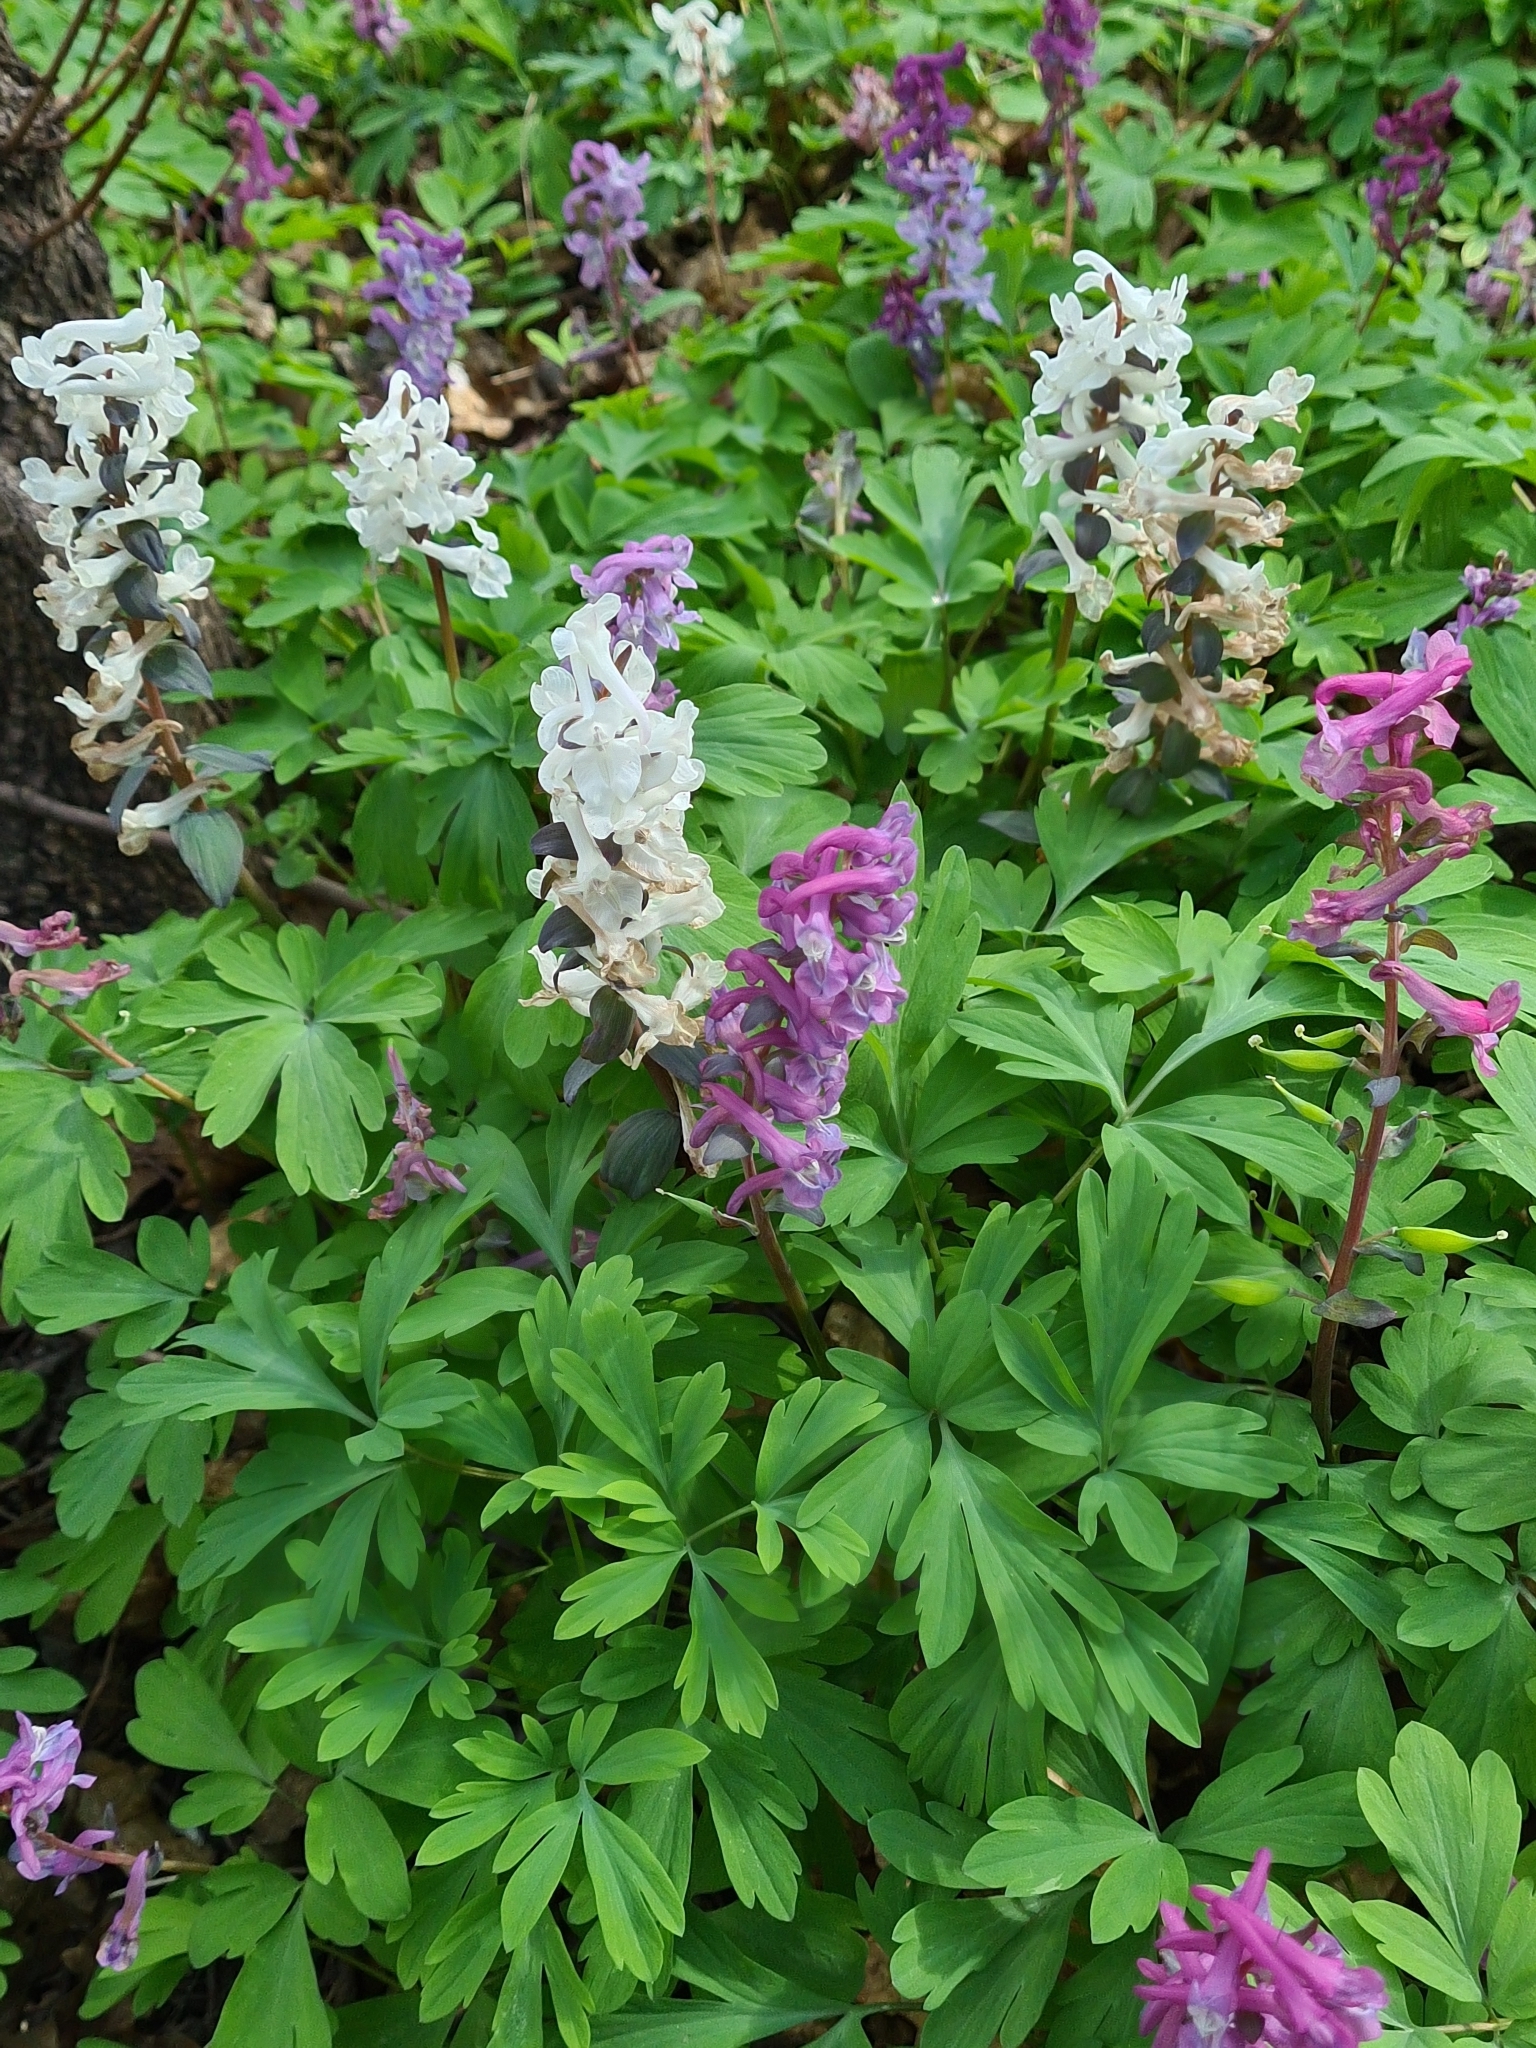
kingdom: Plantae
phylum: Tracheophyta
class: Magnoliopsida
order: Ranunculales
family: Papaveraceae
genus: Corydalis
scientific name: Corydalis cava
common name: Hollowroot
